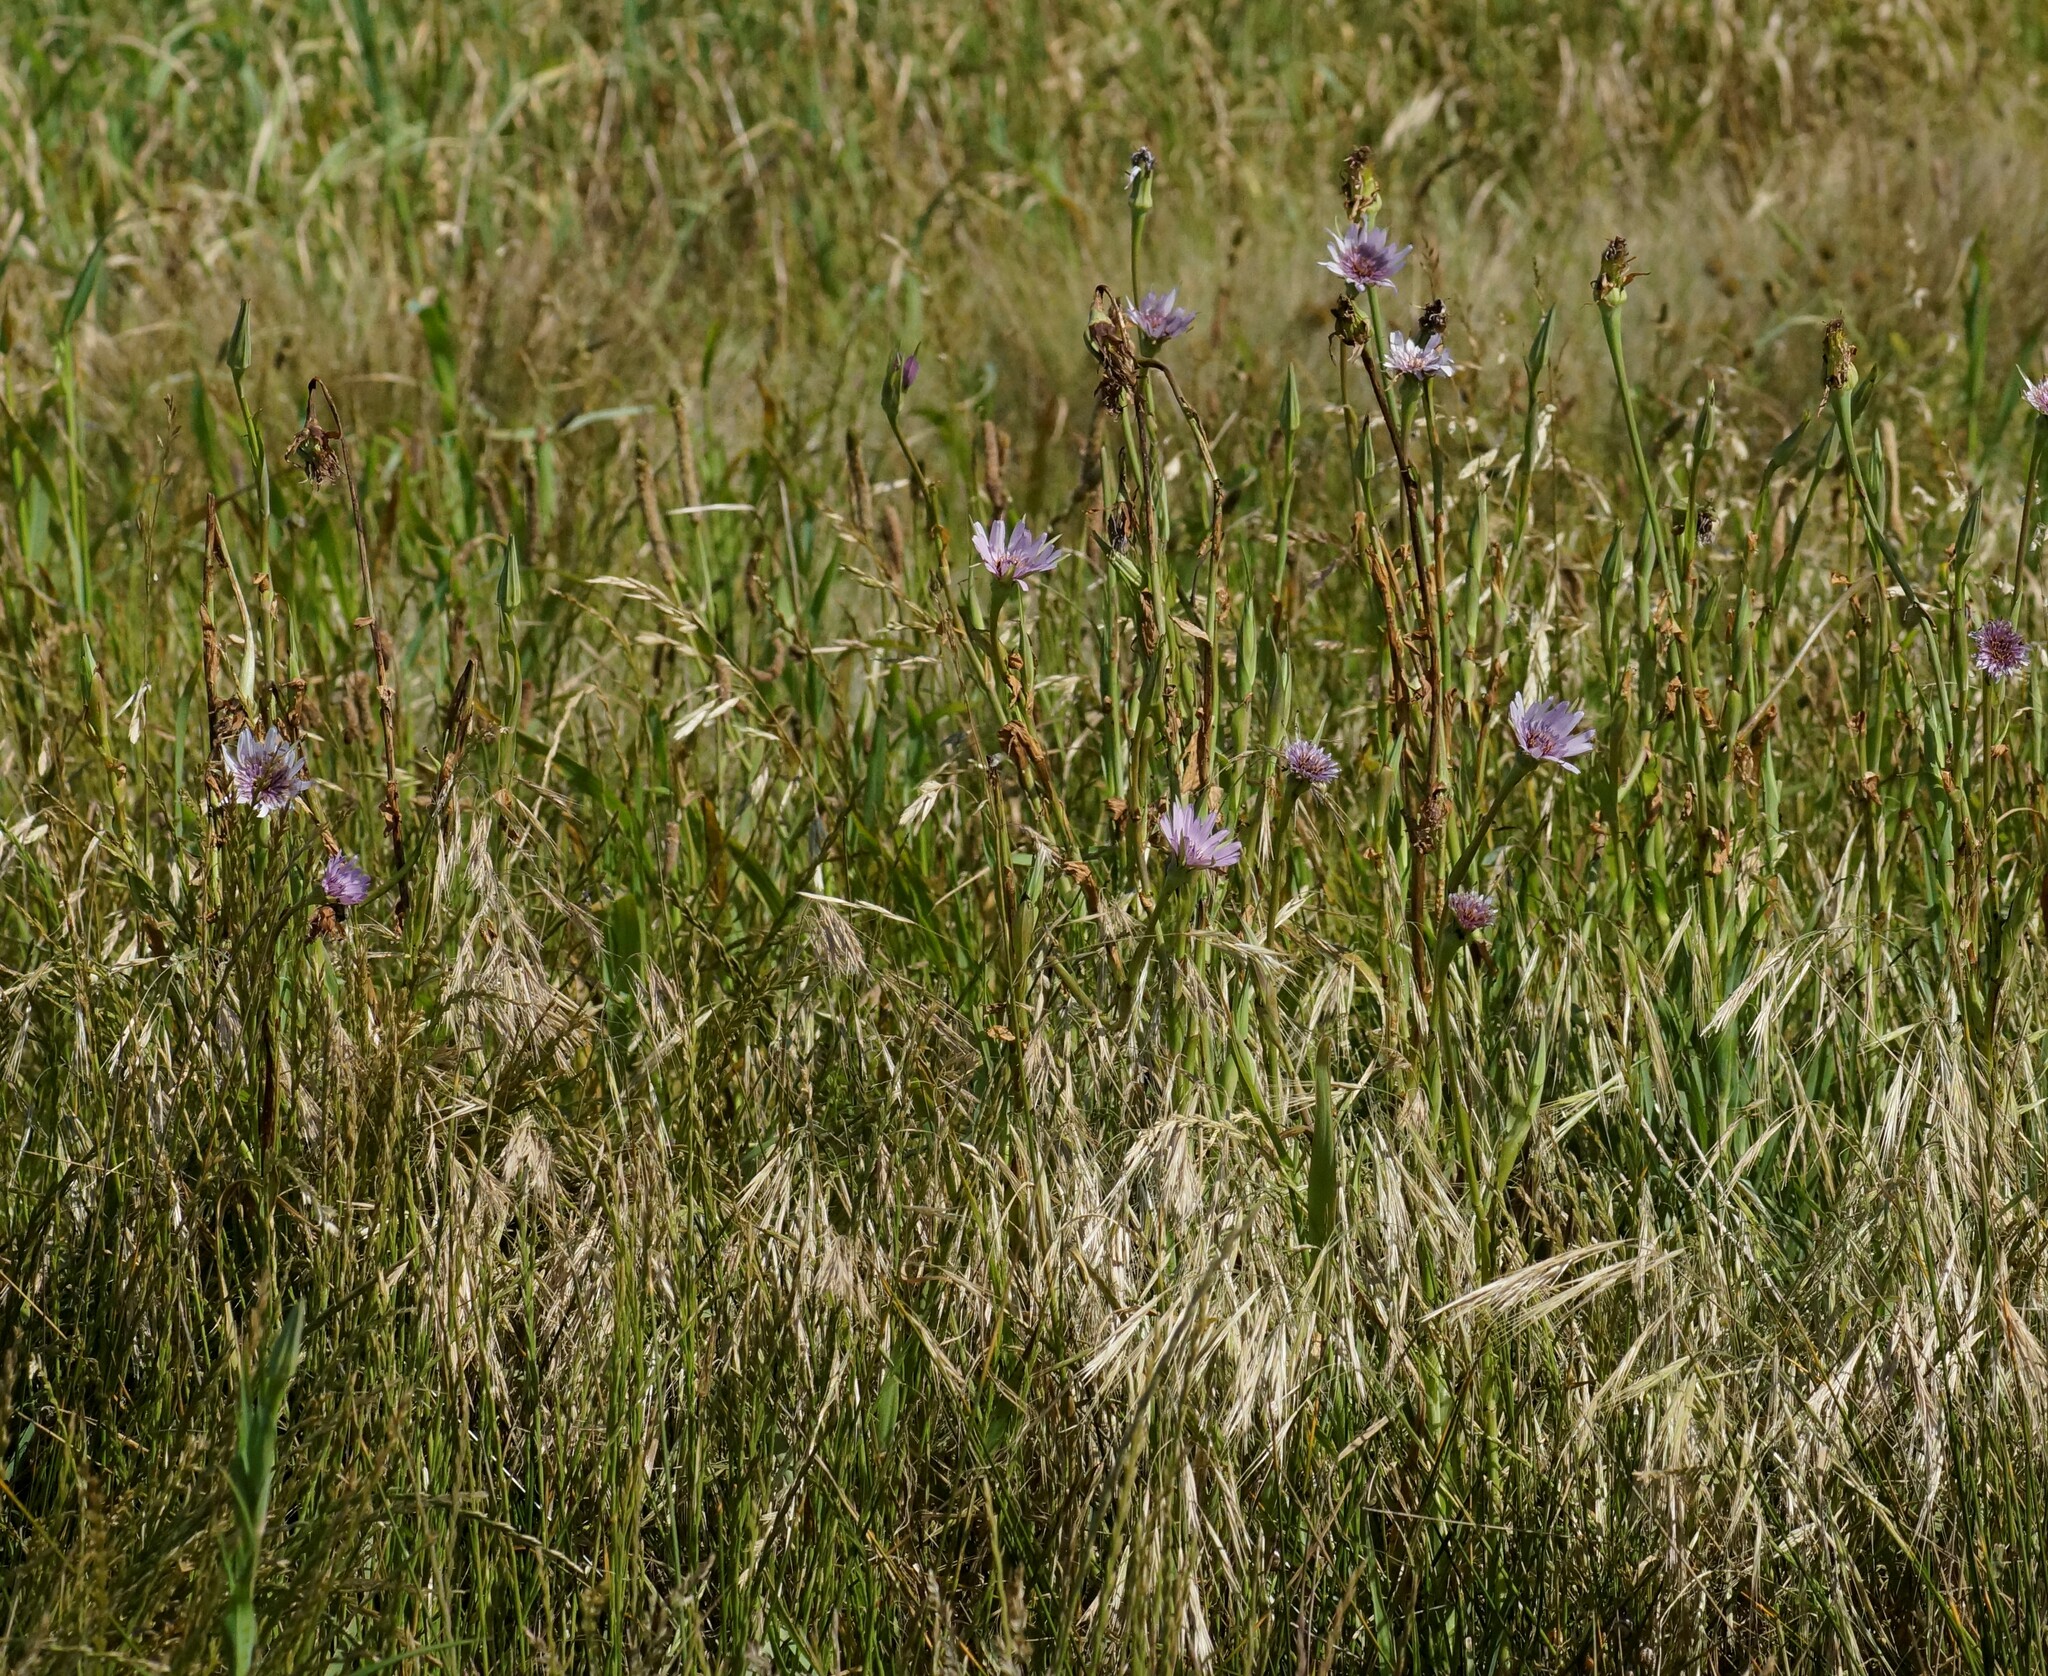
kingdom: Plantae
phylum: Tracheophyta
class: Magnoliopsida
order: Asterales
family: Asteraceae
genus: Tragopogon
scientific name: Tragopogon porrifolius
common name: Salsify
